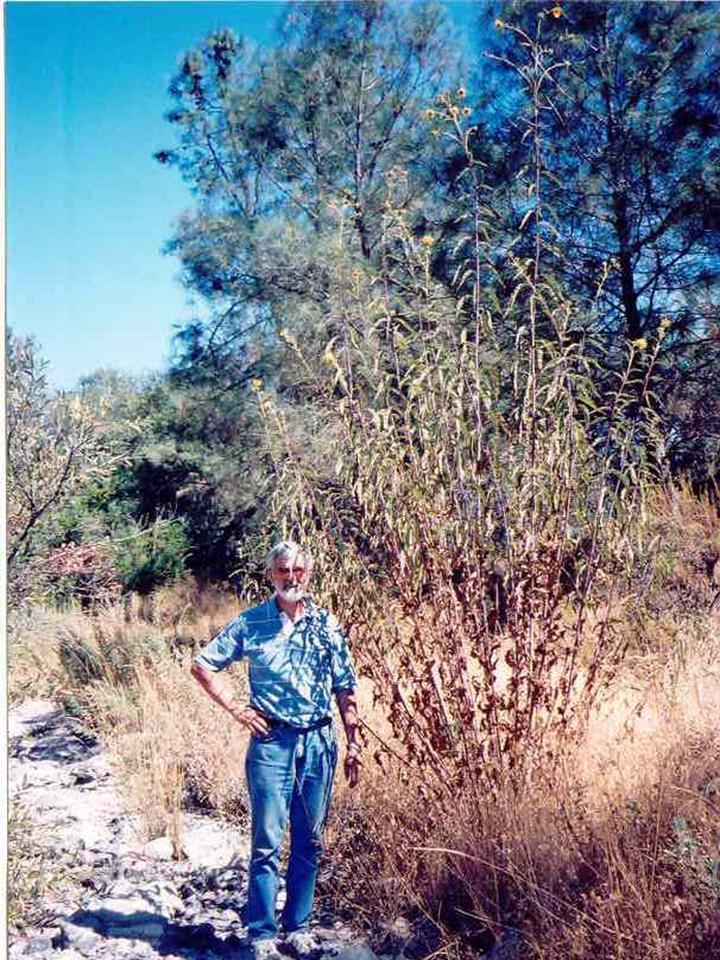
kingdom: Plantae
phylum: Tracheophyta
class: Magnoliopsida
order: Asterales
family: Asteraceae
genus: Helianthus
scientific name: Helianthus californicus
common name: California sunflower
